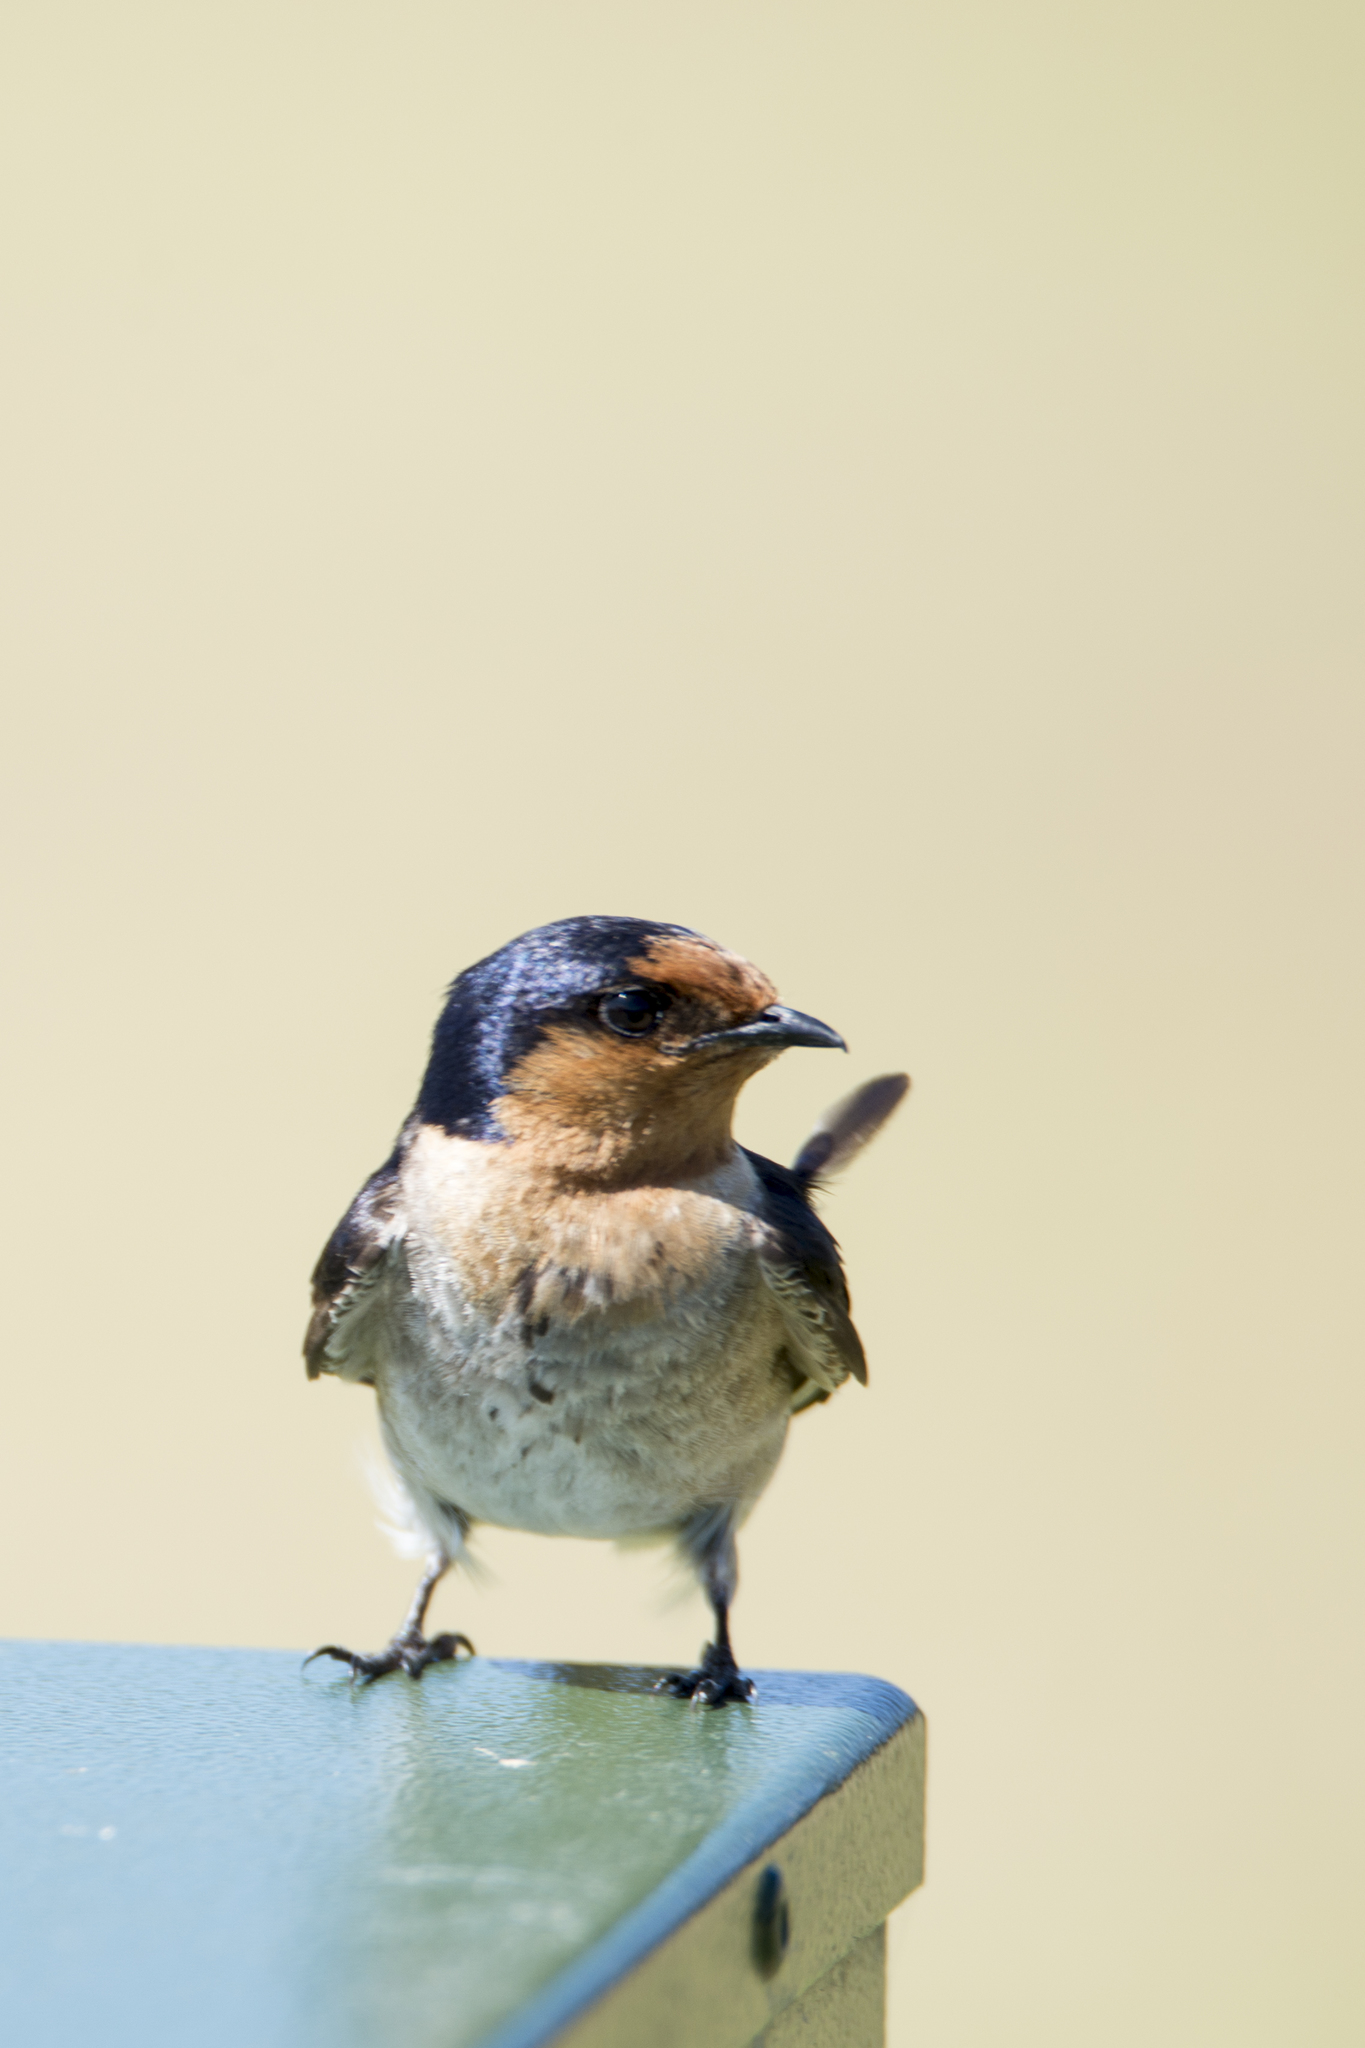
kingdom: Animalia
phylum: Chordata
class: Aves
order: Passeriformes
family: Hirundinidae
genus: Hirundo
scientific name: Hirundo neoxena
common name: Welcome swallow
